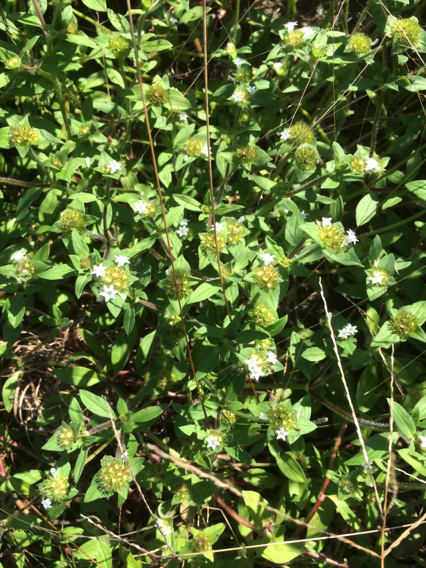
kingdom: Plantae
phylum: Tracheophyta
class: Magnoliopsida
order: Gentianales
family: Rubiaceae
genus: Richardia
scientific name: Richardia brasiliensis
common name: Tropical mexican clover
